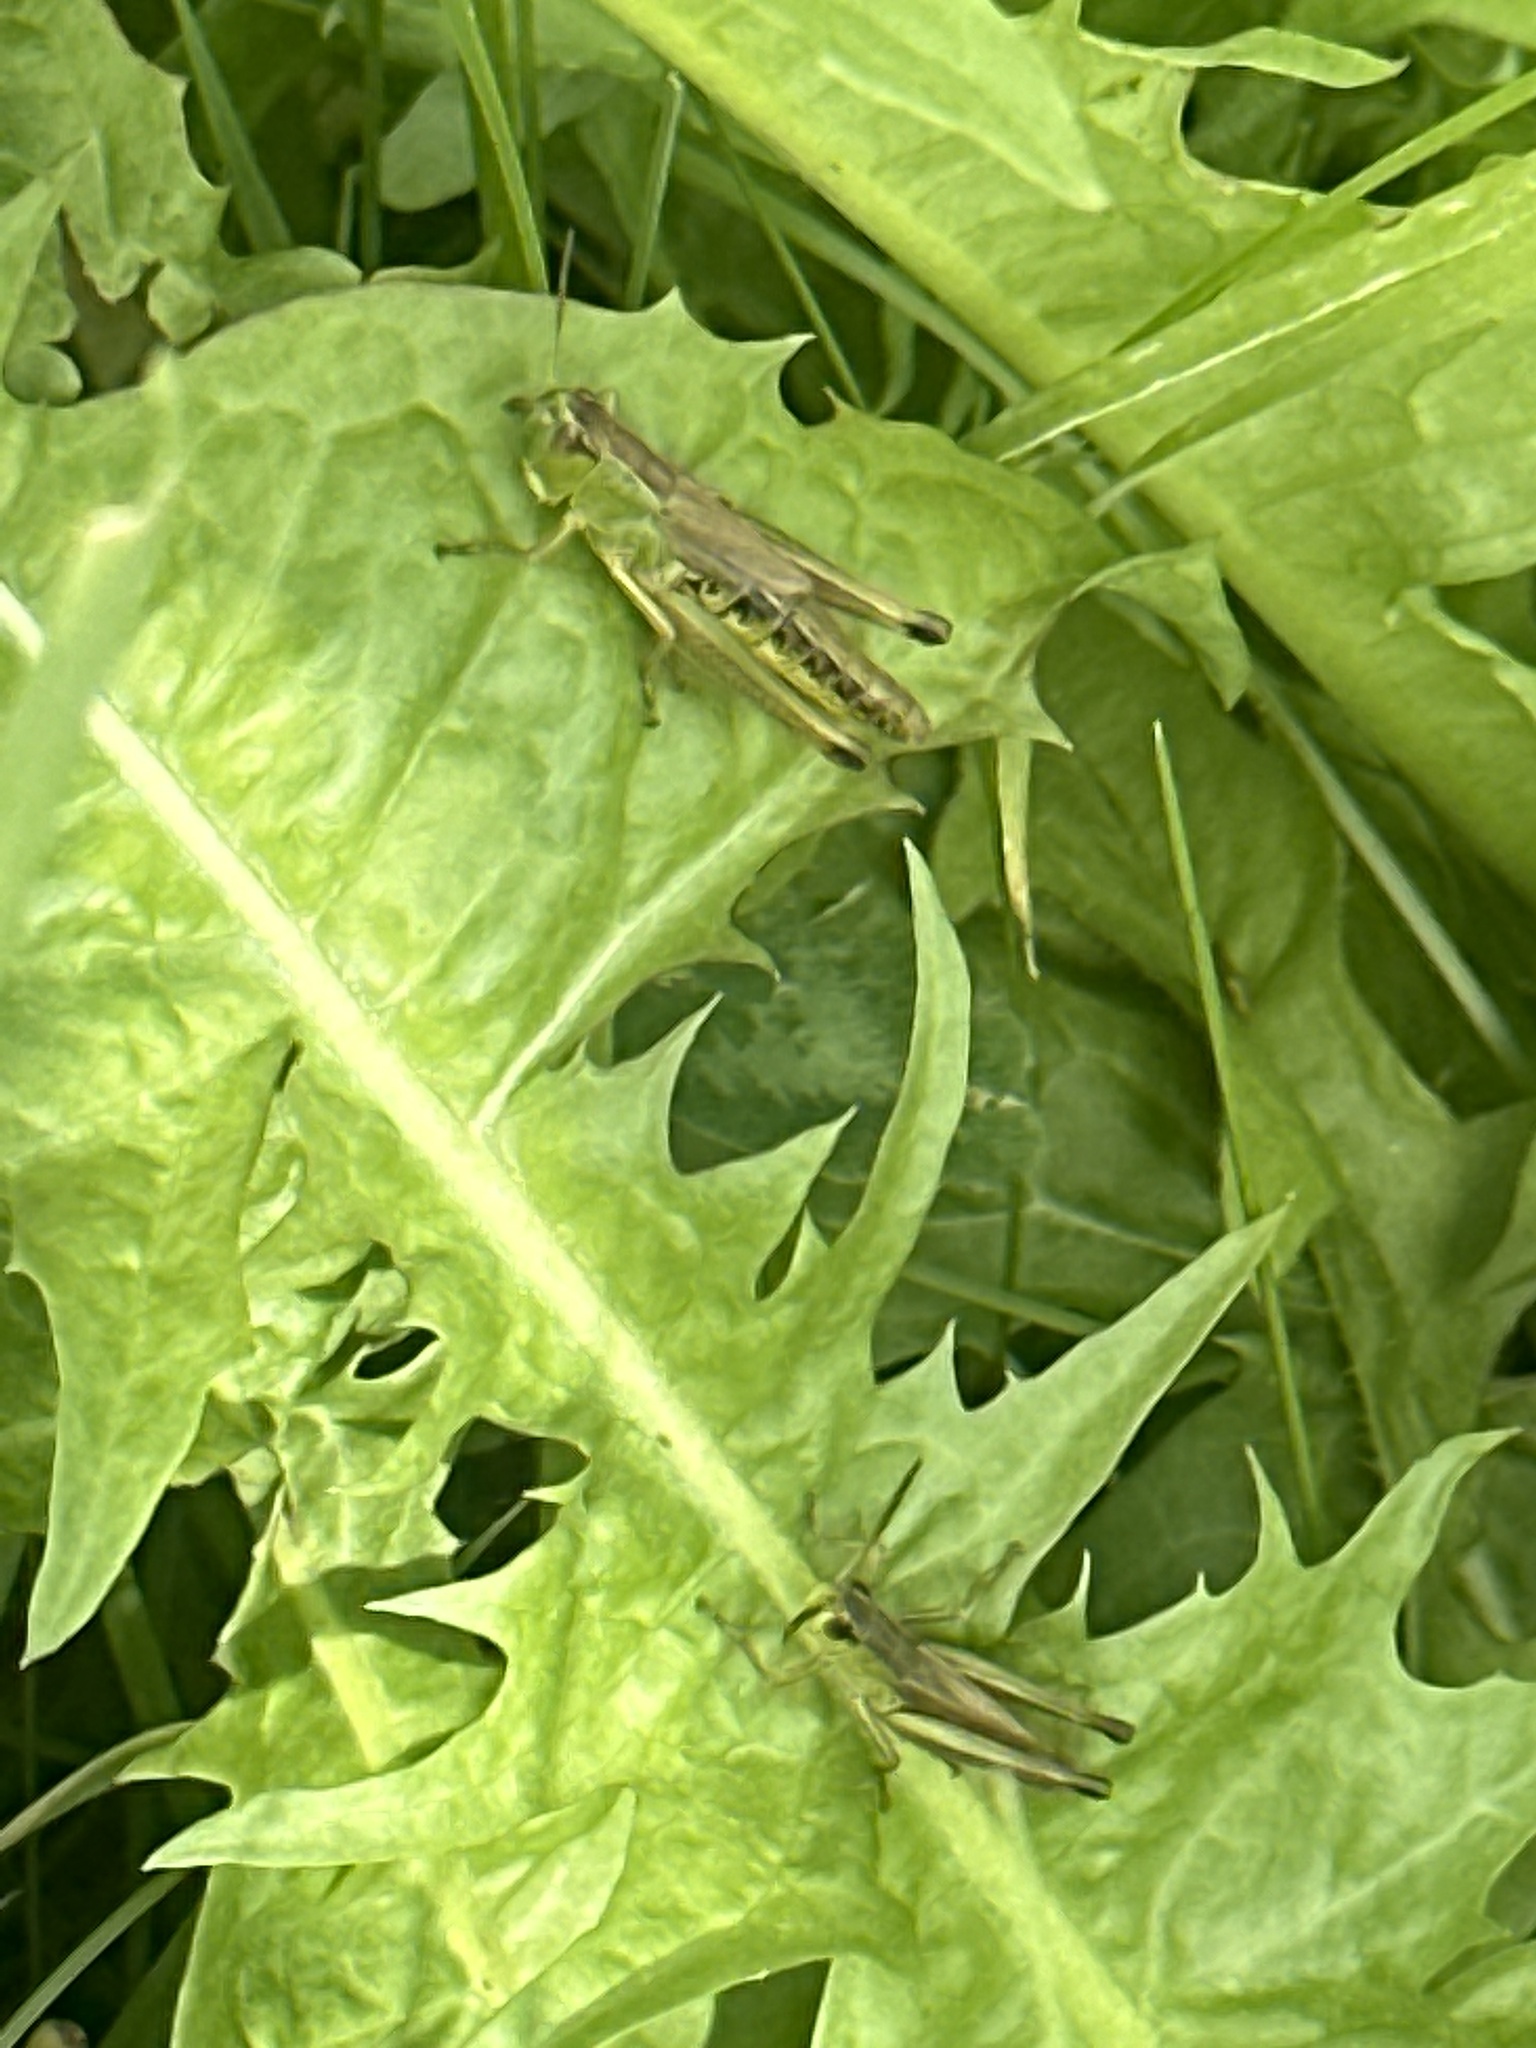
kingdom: Animalia
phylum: Arthropoda
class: Insecta
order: Orthoptera
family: Acrididae
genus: Pseudochorthippus
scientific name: Pseudochorthippus parallelus
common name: Meadow grasshopper
